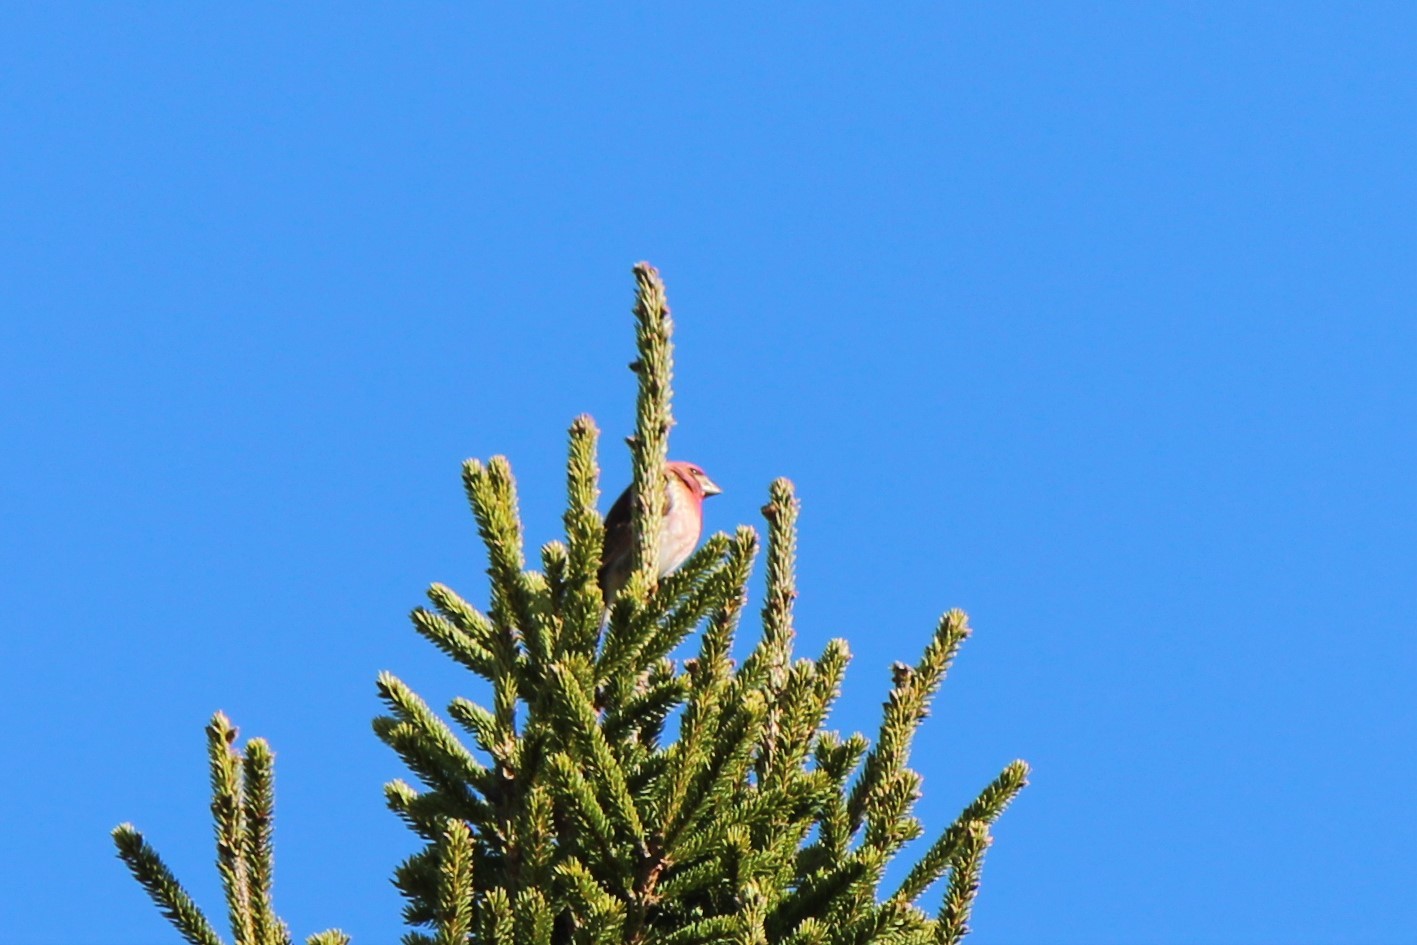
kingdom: Animalia
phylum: Chordata
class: Aves
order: Passeriformes
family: Fringillidae
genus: Haemorhous
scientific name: Haemorhous purpureus
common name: Purple finch
